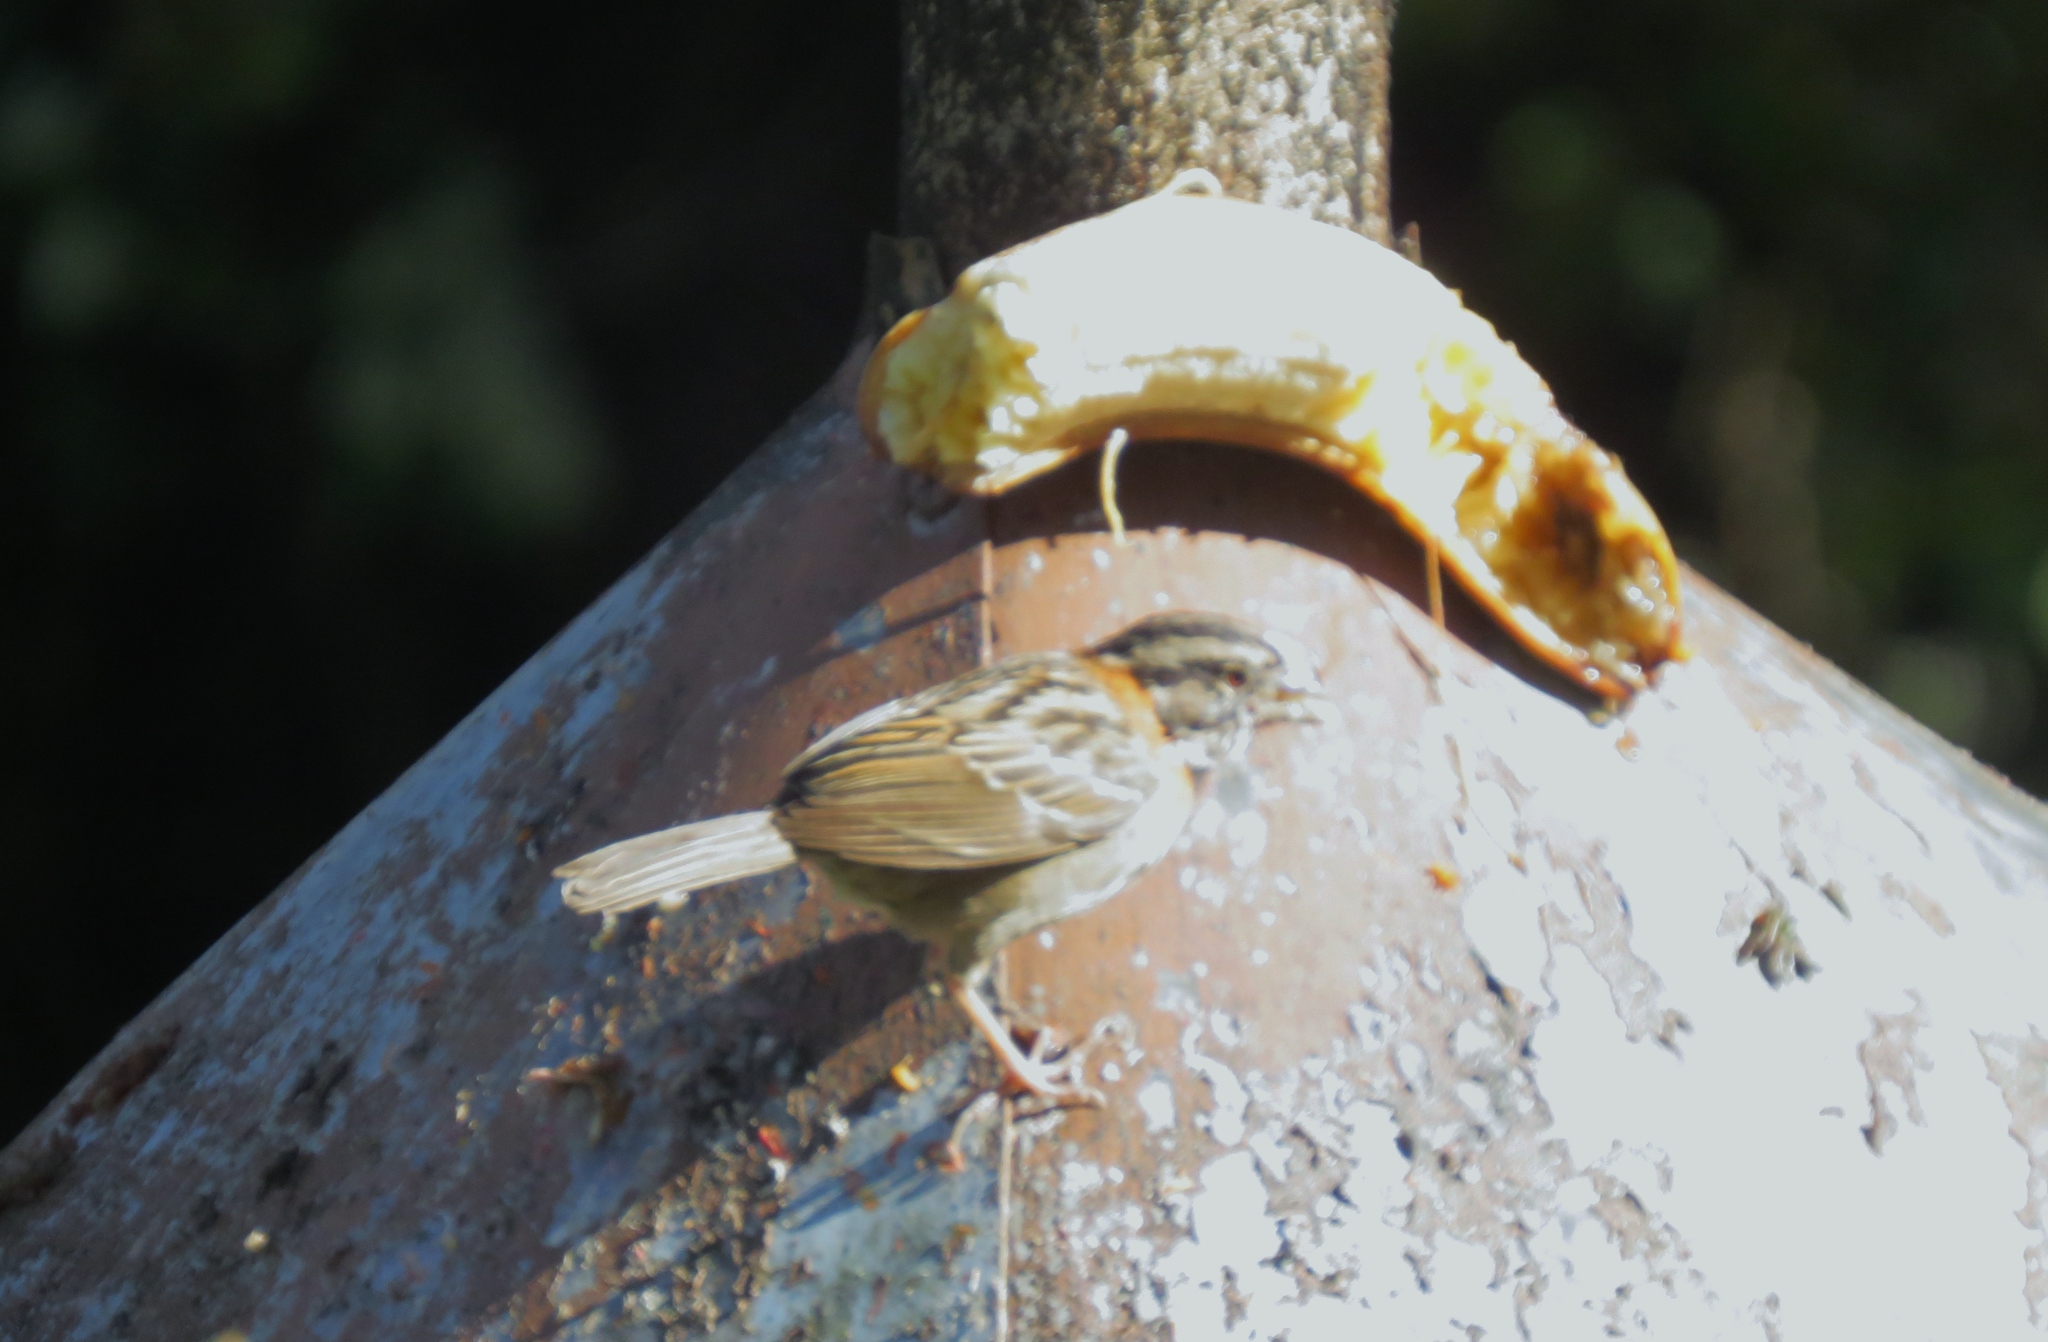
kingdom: Animalia
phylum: Chordata
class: Aves
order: Passeriformes
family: Passerellidae
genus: Zonotrichia
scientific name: Zonotrichia capensis
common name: Rufous-collared sparrow
